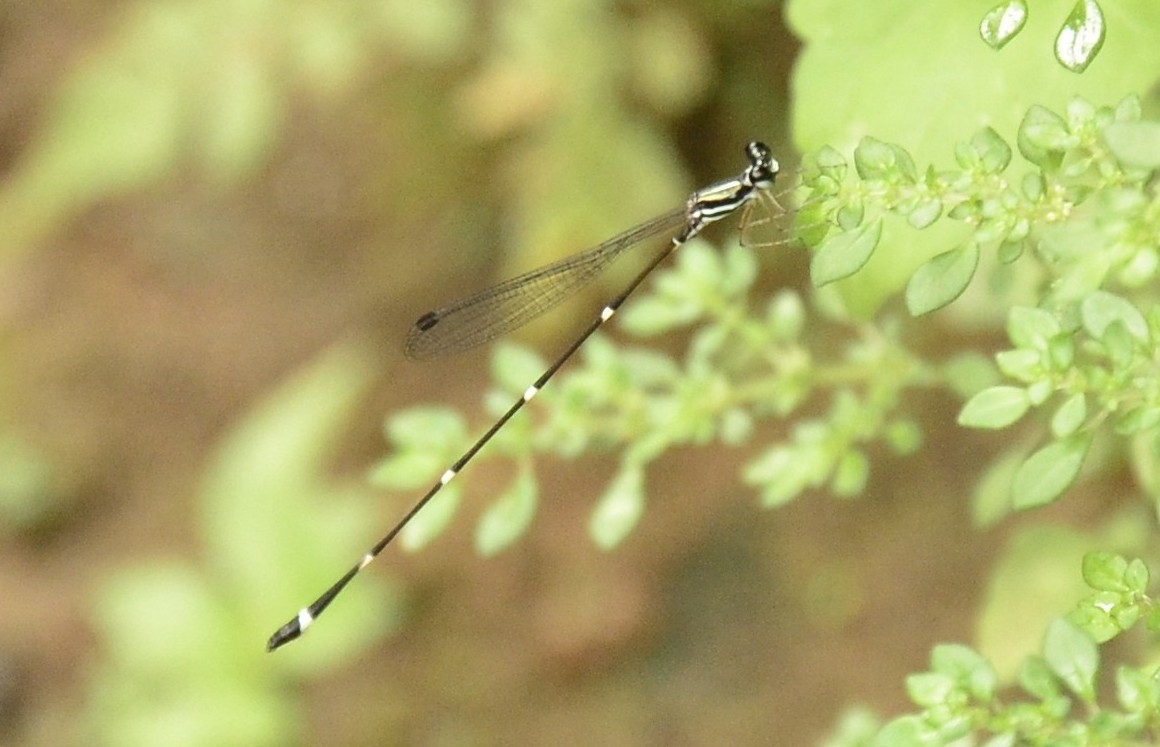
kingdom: Animalia
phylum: Arthropoda
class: Insecta
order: Odonata
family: Platystictidae
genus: Protosticta
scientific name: Protosticta gravelyi
